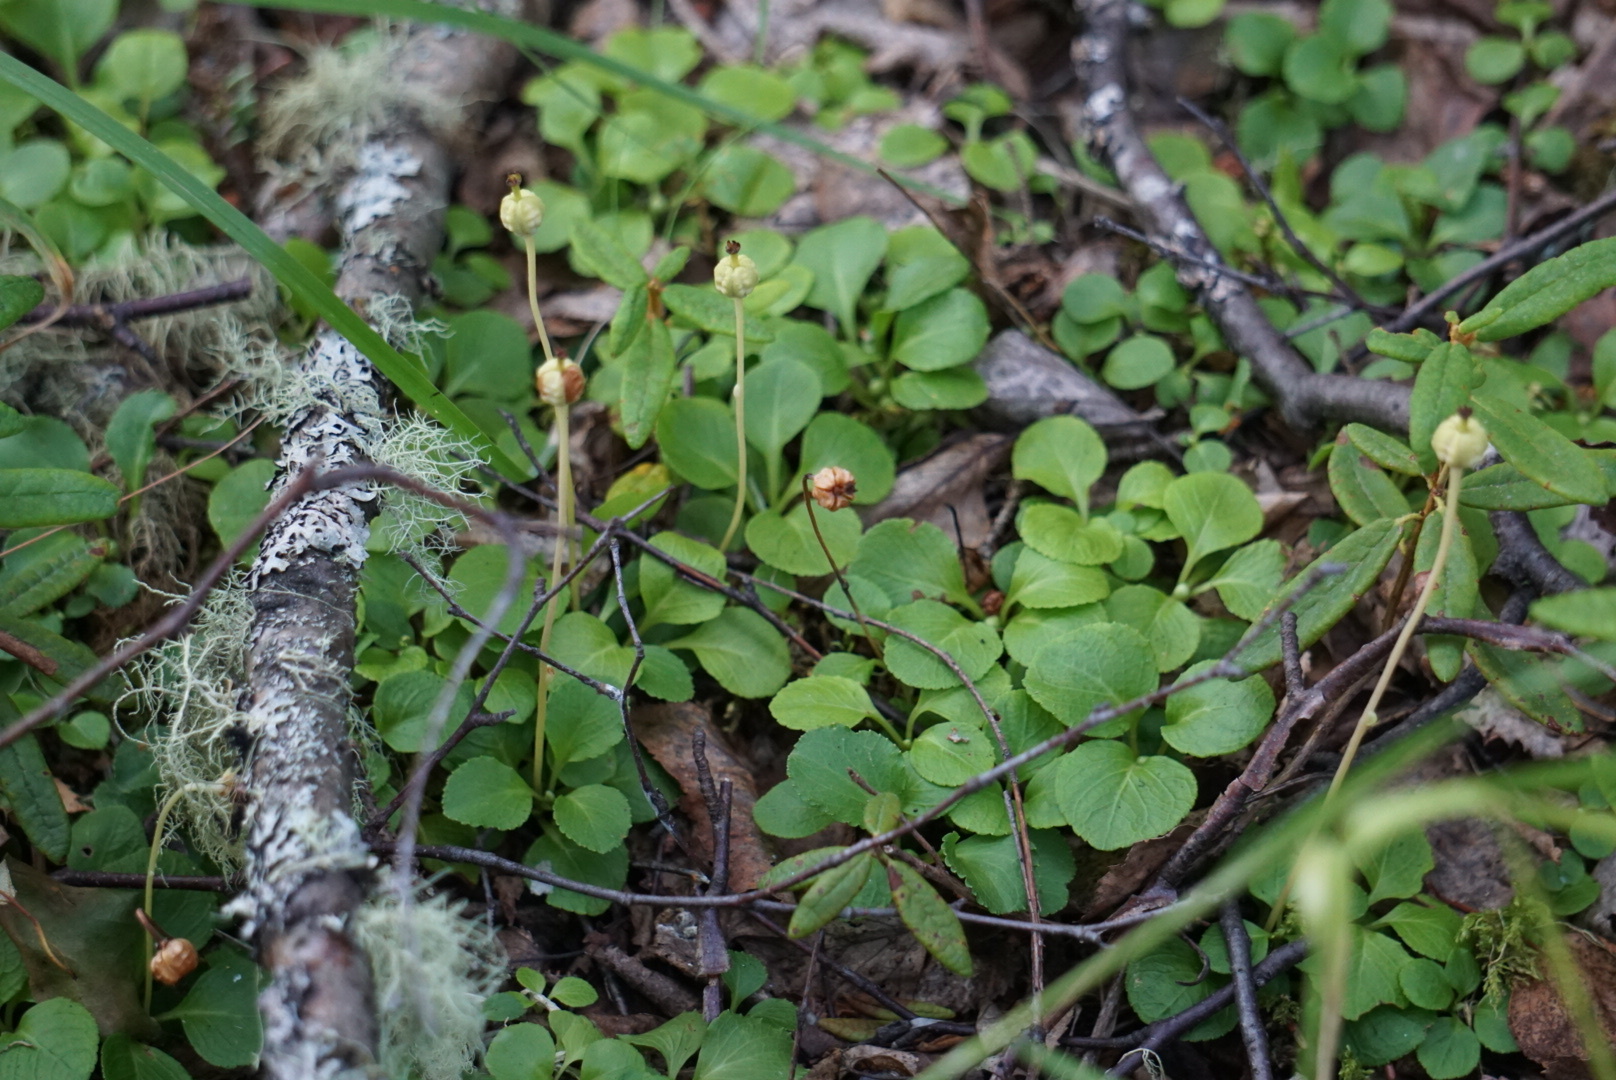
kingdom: Plantae
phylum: Tracheophyta
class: Magnoliopsida
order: Ericales
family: Ericaceae
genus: Moneses
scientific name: Moneses uniflora
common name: One-flowered wintergreen
